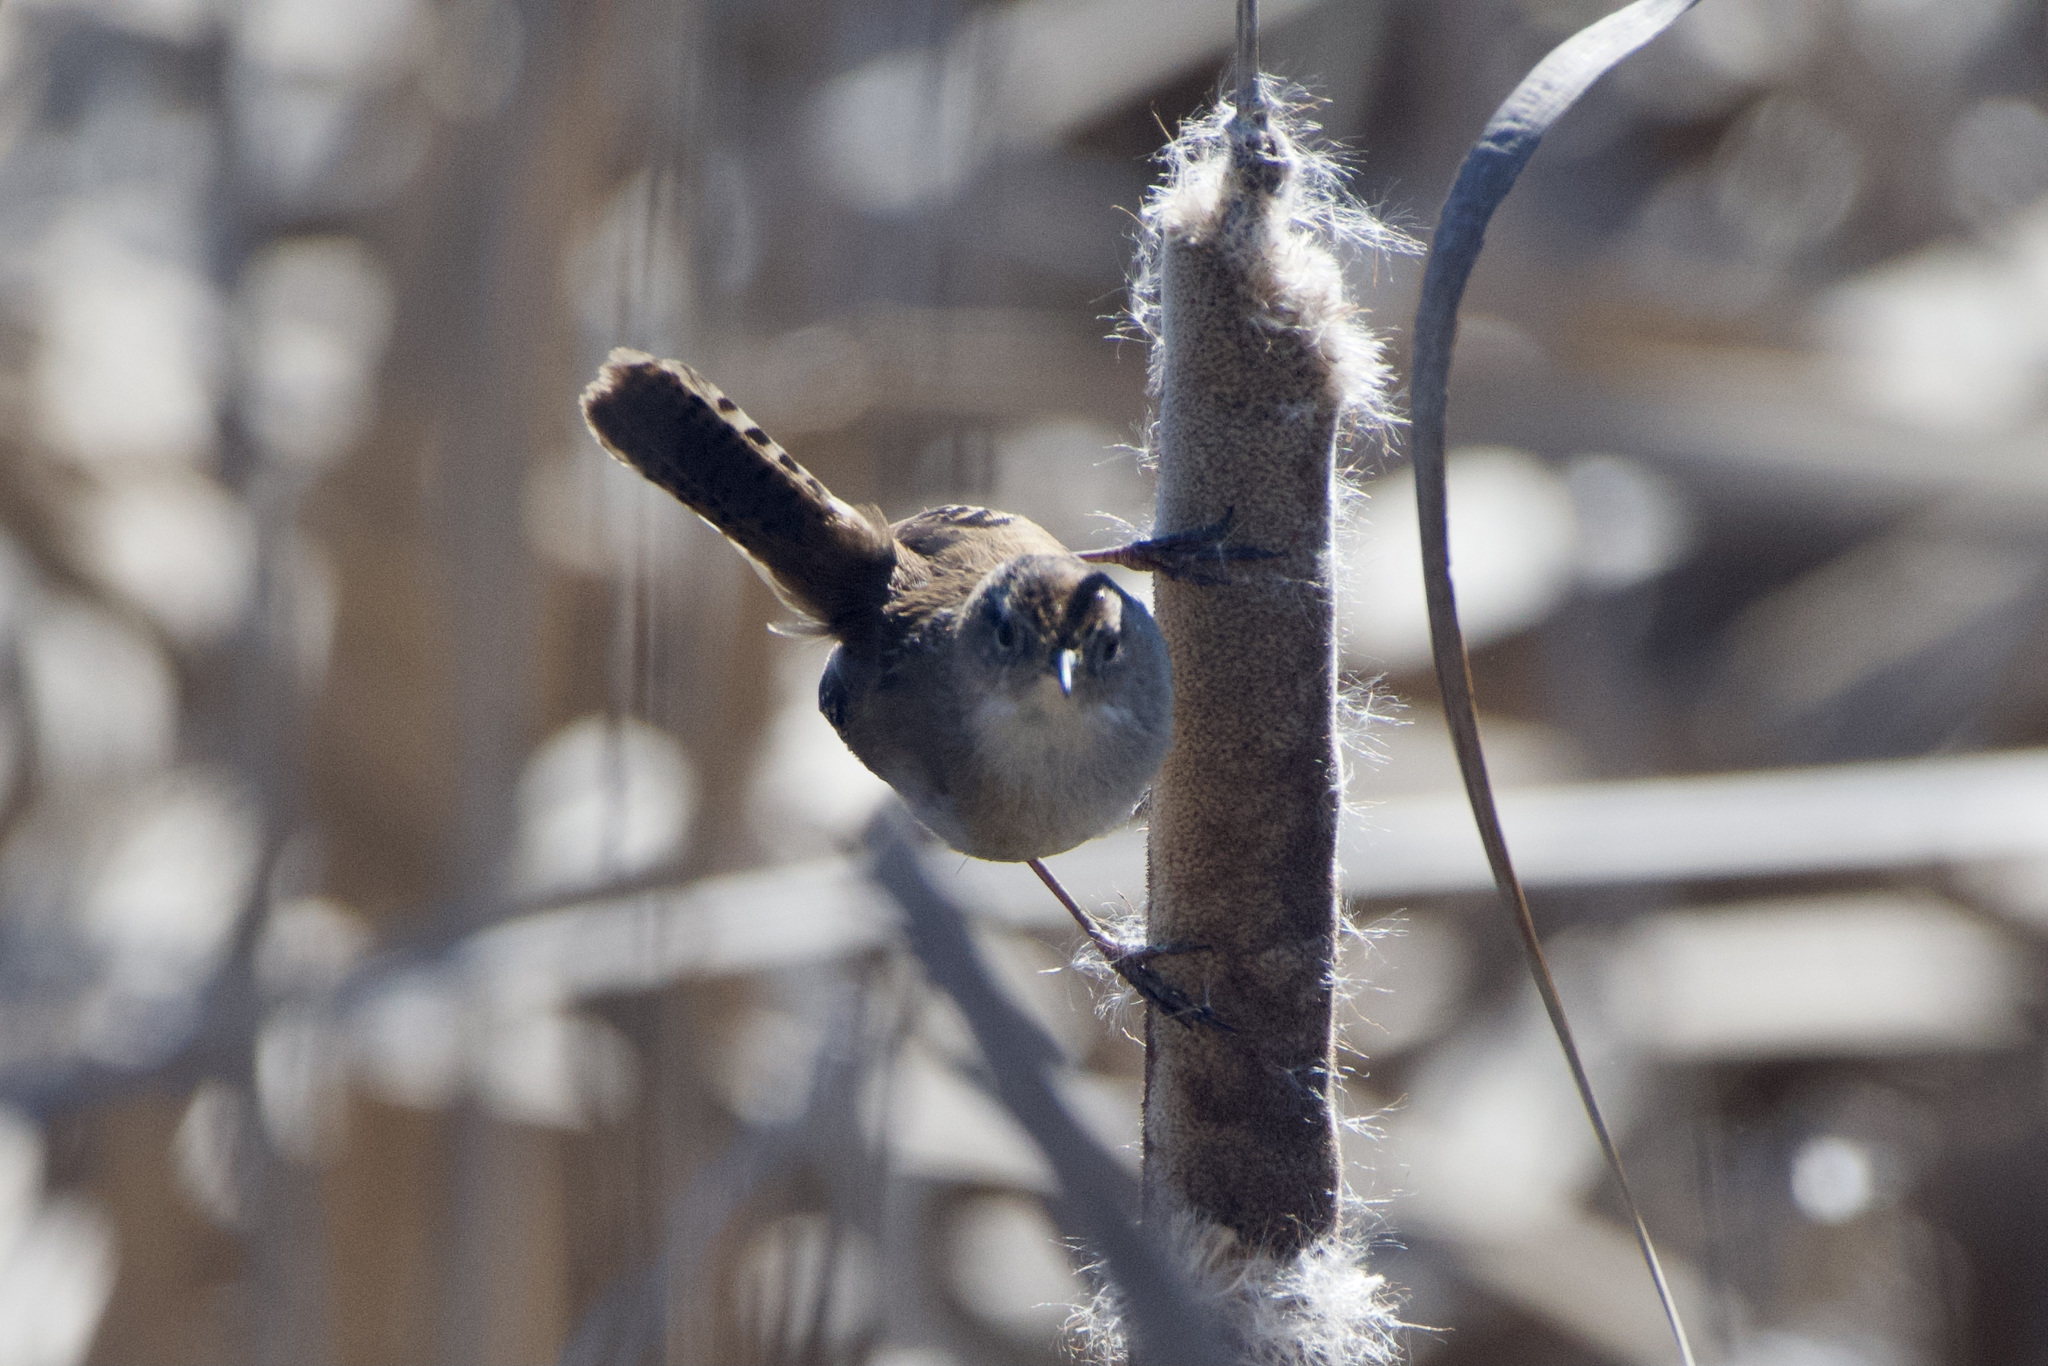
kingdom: Animalia
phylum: Chordata
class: Aves
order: Passeriformes
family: Troglodytidae
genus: Cistothorus
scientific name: Cistothorus palustris
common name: Marsh wren
